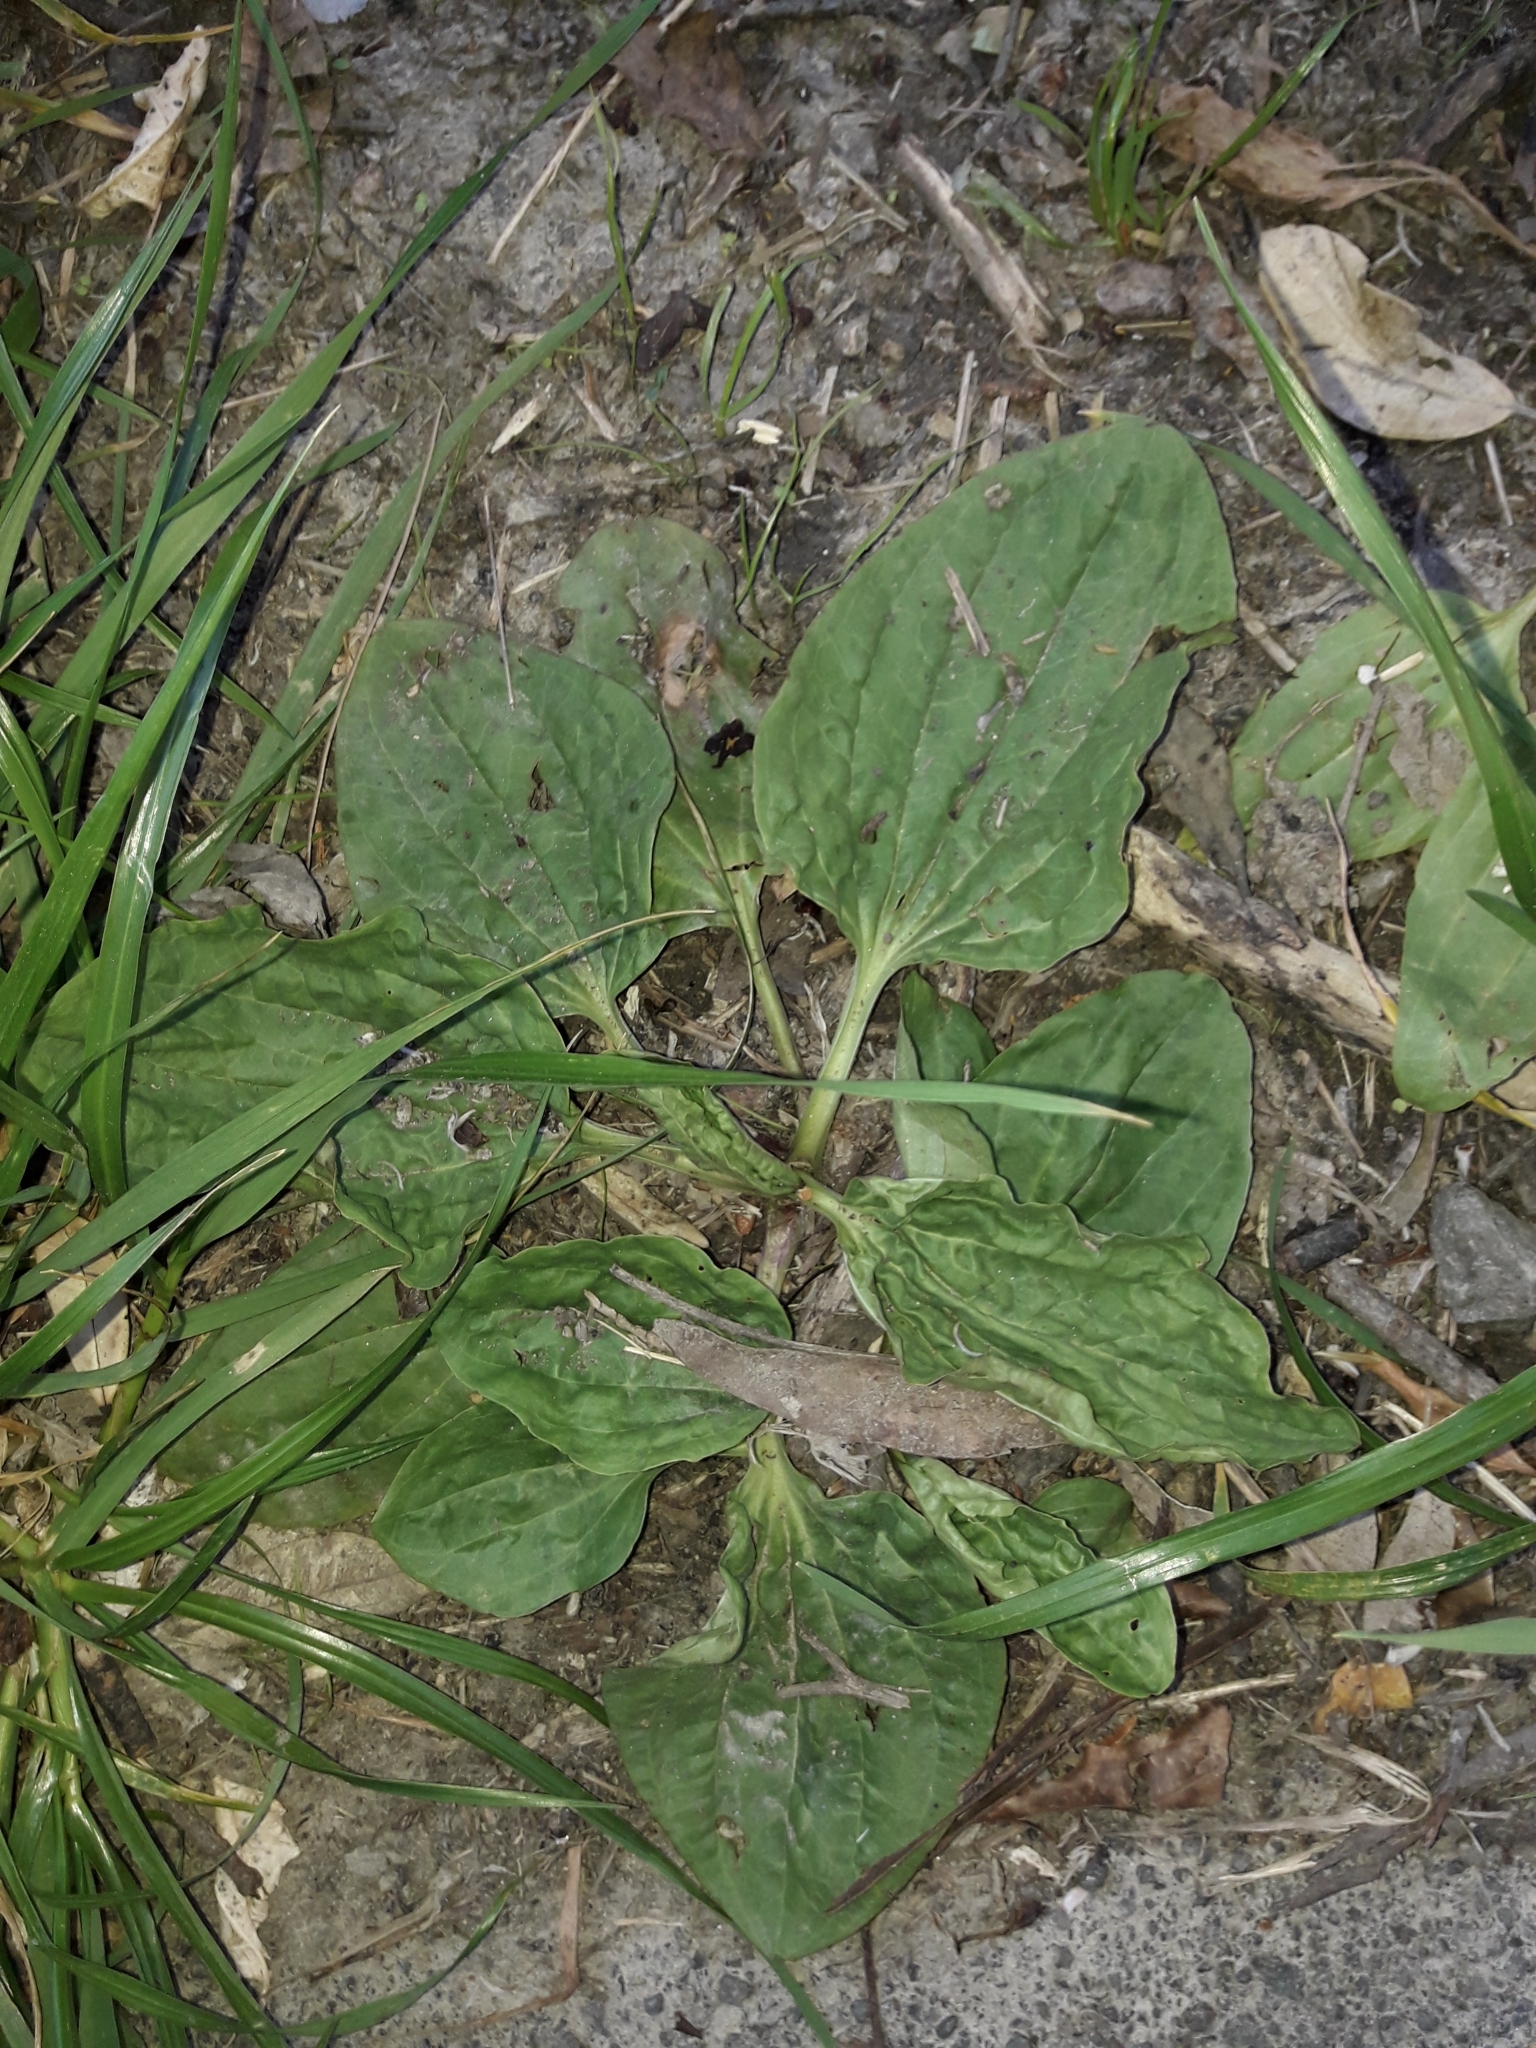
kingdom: Plantae
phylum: Tracheophyta
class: Magnoliopsida
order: Lamiales
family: Plantaginaceae
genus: Plantago
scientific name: Plantago major
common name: Common plantain
